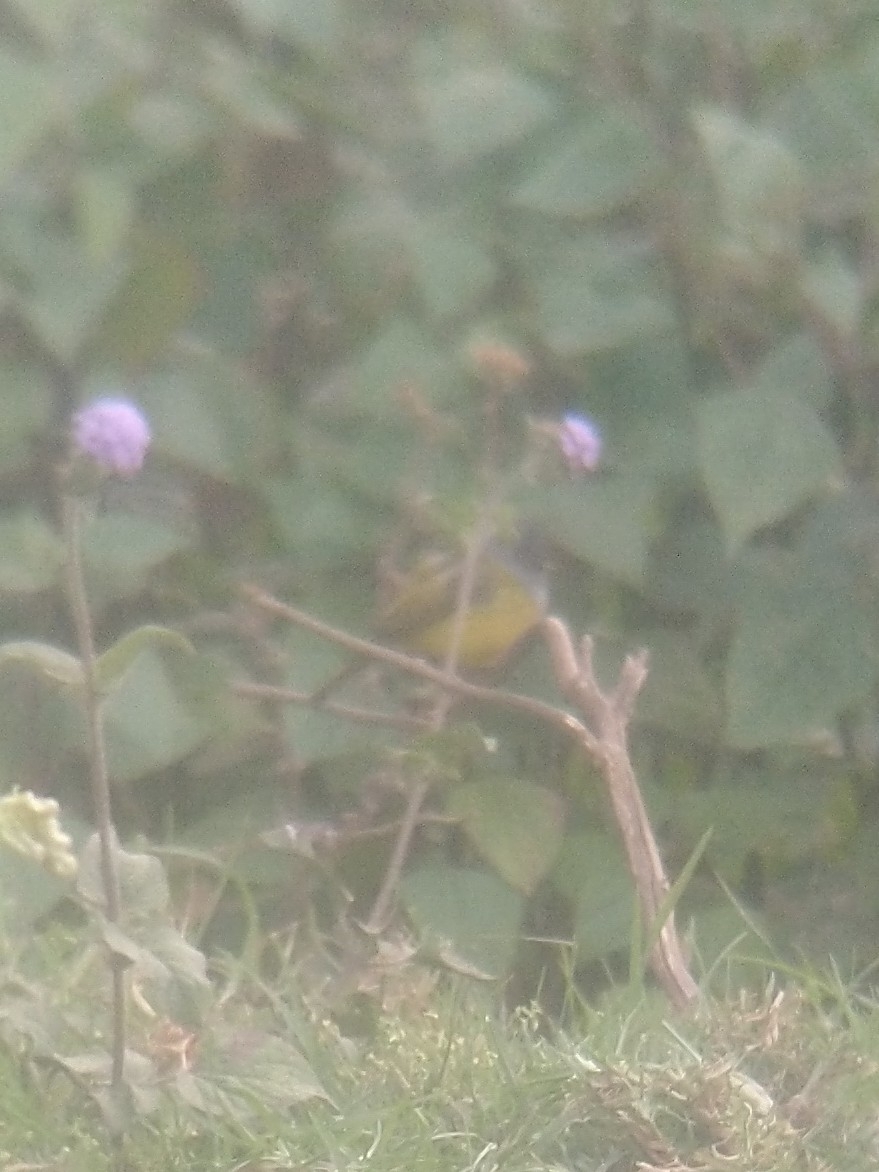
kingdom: Animalia
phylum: Chordata
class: Aves
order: Passeriformes
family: Stenostiridae
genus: Culicicapa
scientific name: Culicicapa ceylonensis
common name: Grey-headed canary-flycatcher
